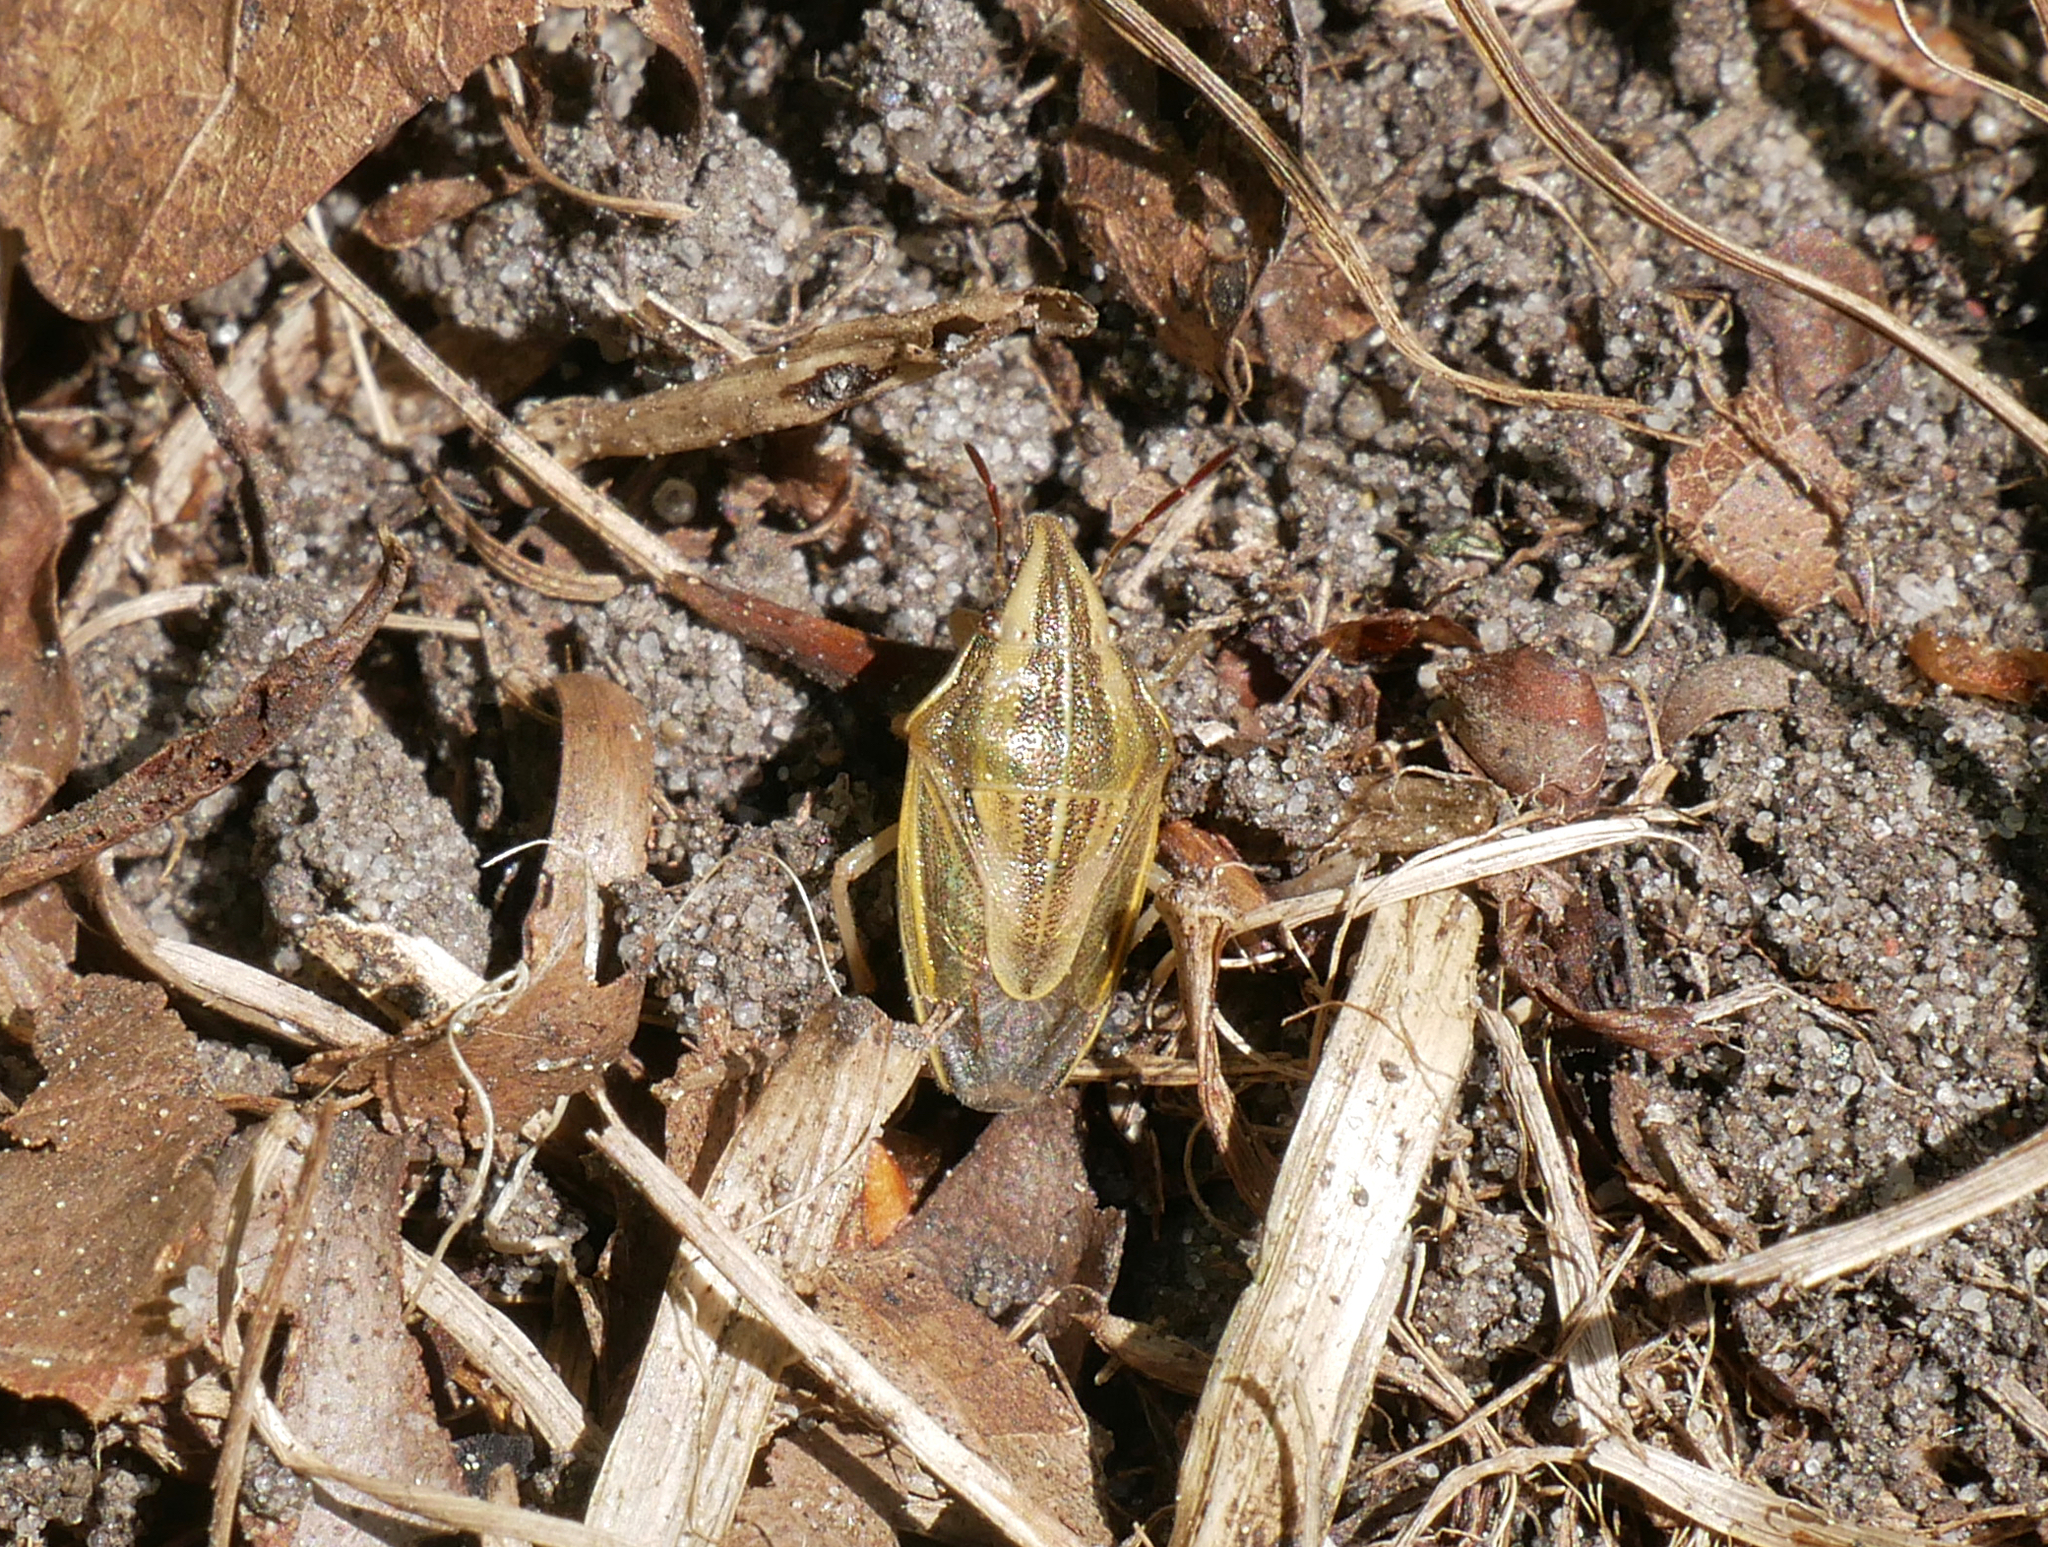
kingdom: Animalia
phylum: Arthropoda
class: Insecta
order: Hemiptera
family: Pentatomidae
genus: Aelia
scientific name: Aelia acuminata
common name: Bishop's mitre
